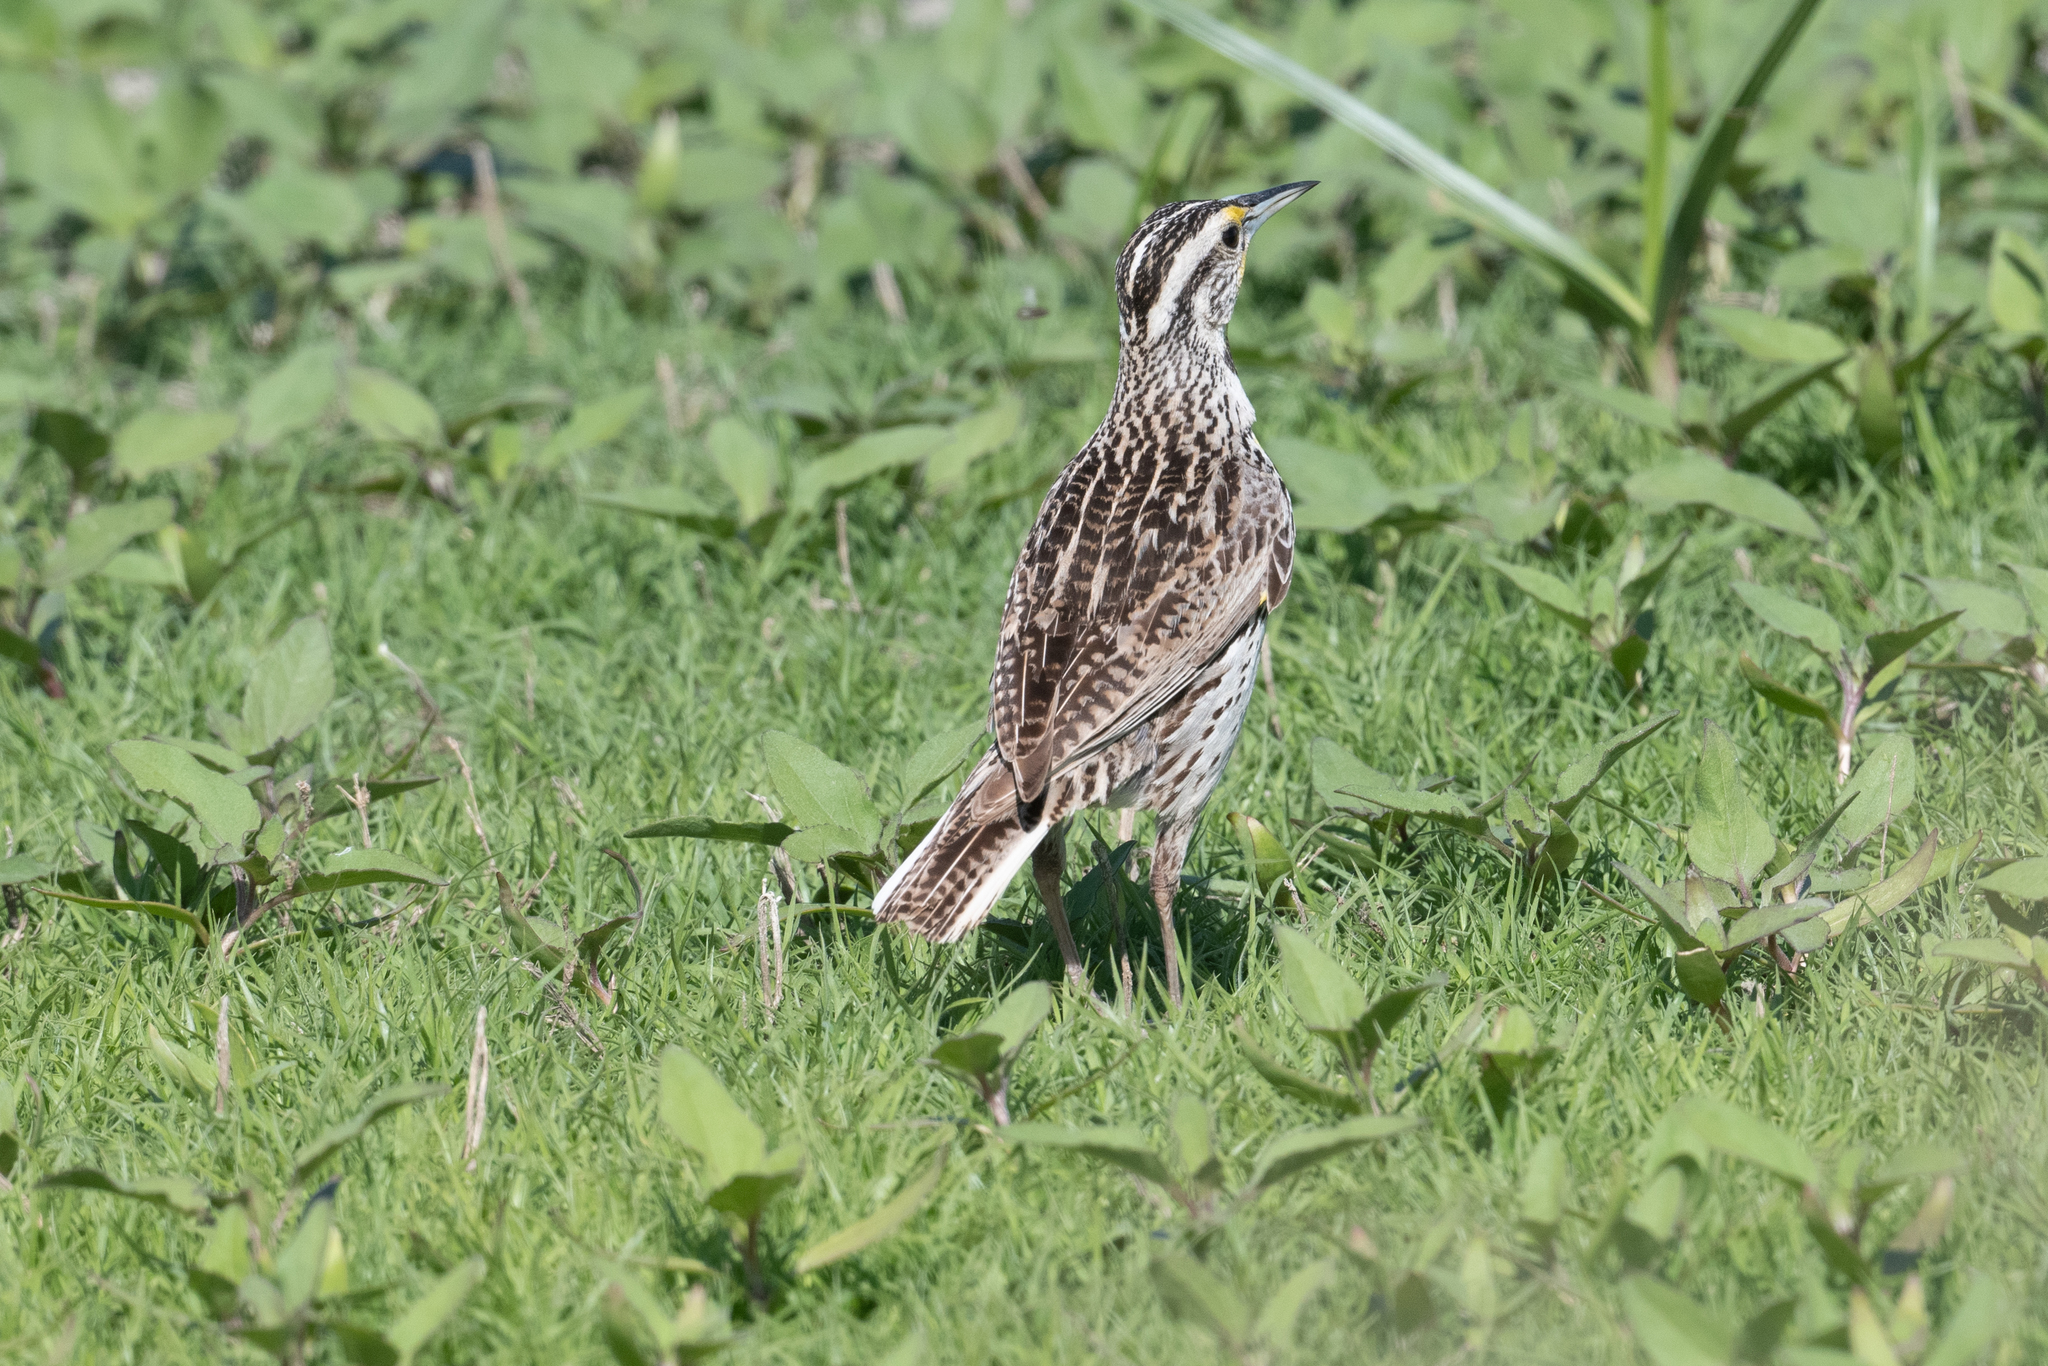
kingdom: Animalia
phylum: Chordata
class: Aves
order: Passeriformes
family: Icteridae
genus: Sturnella
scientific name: Sturnella neglecta
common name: Western meadowlark
